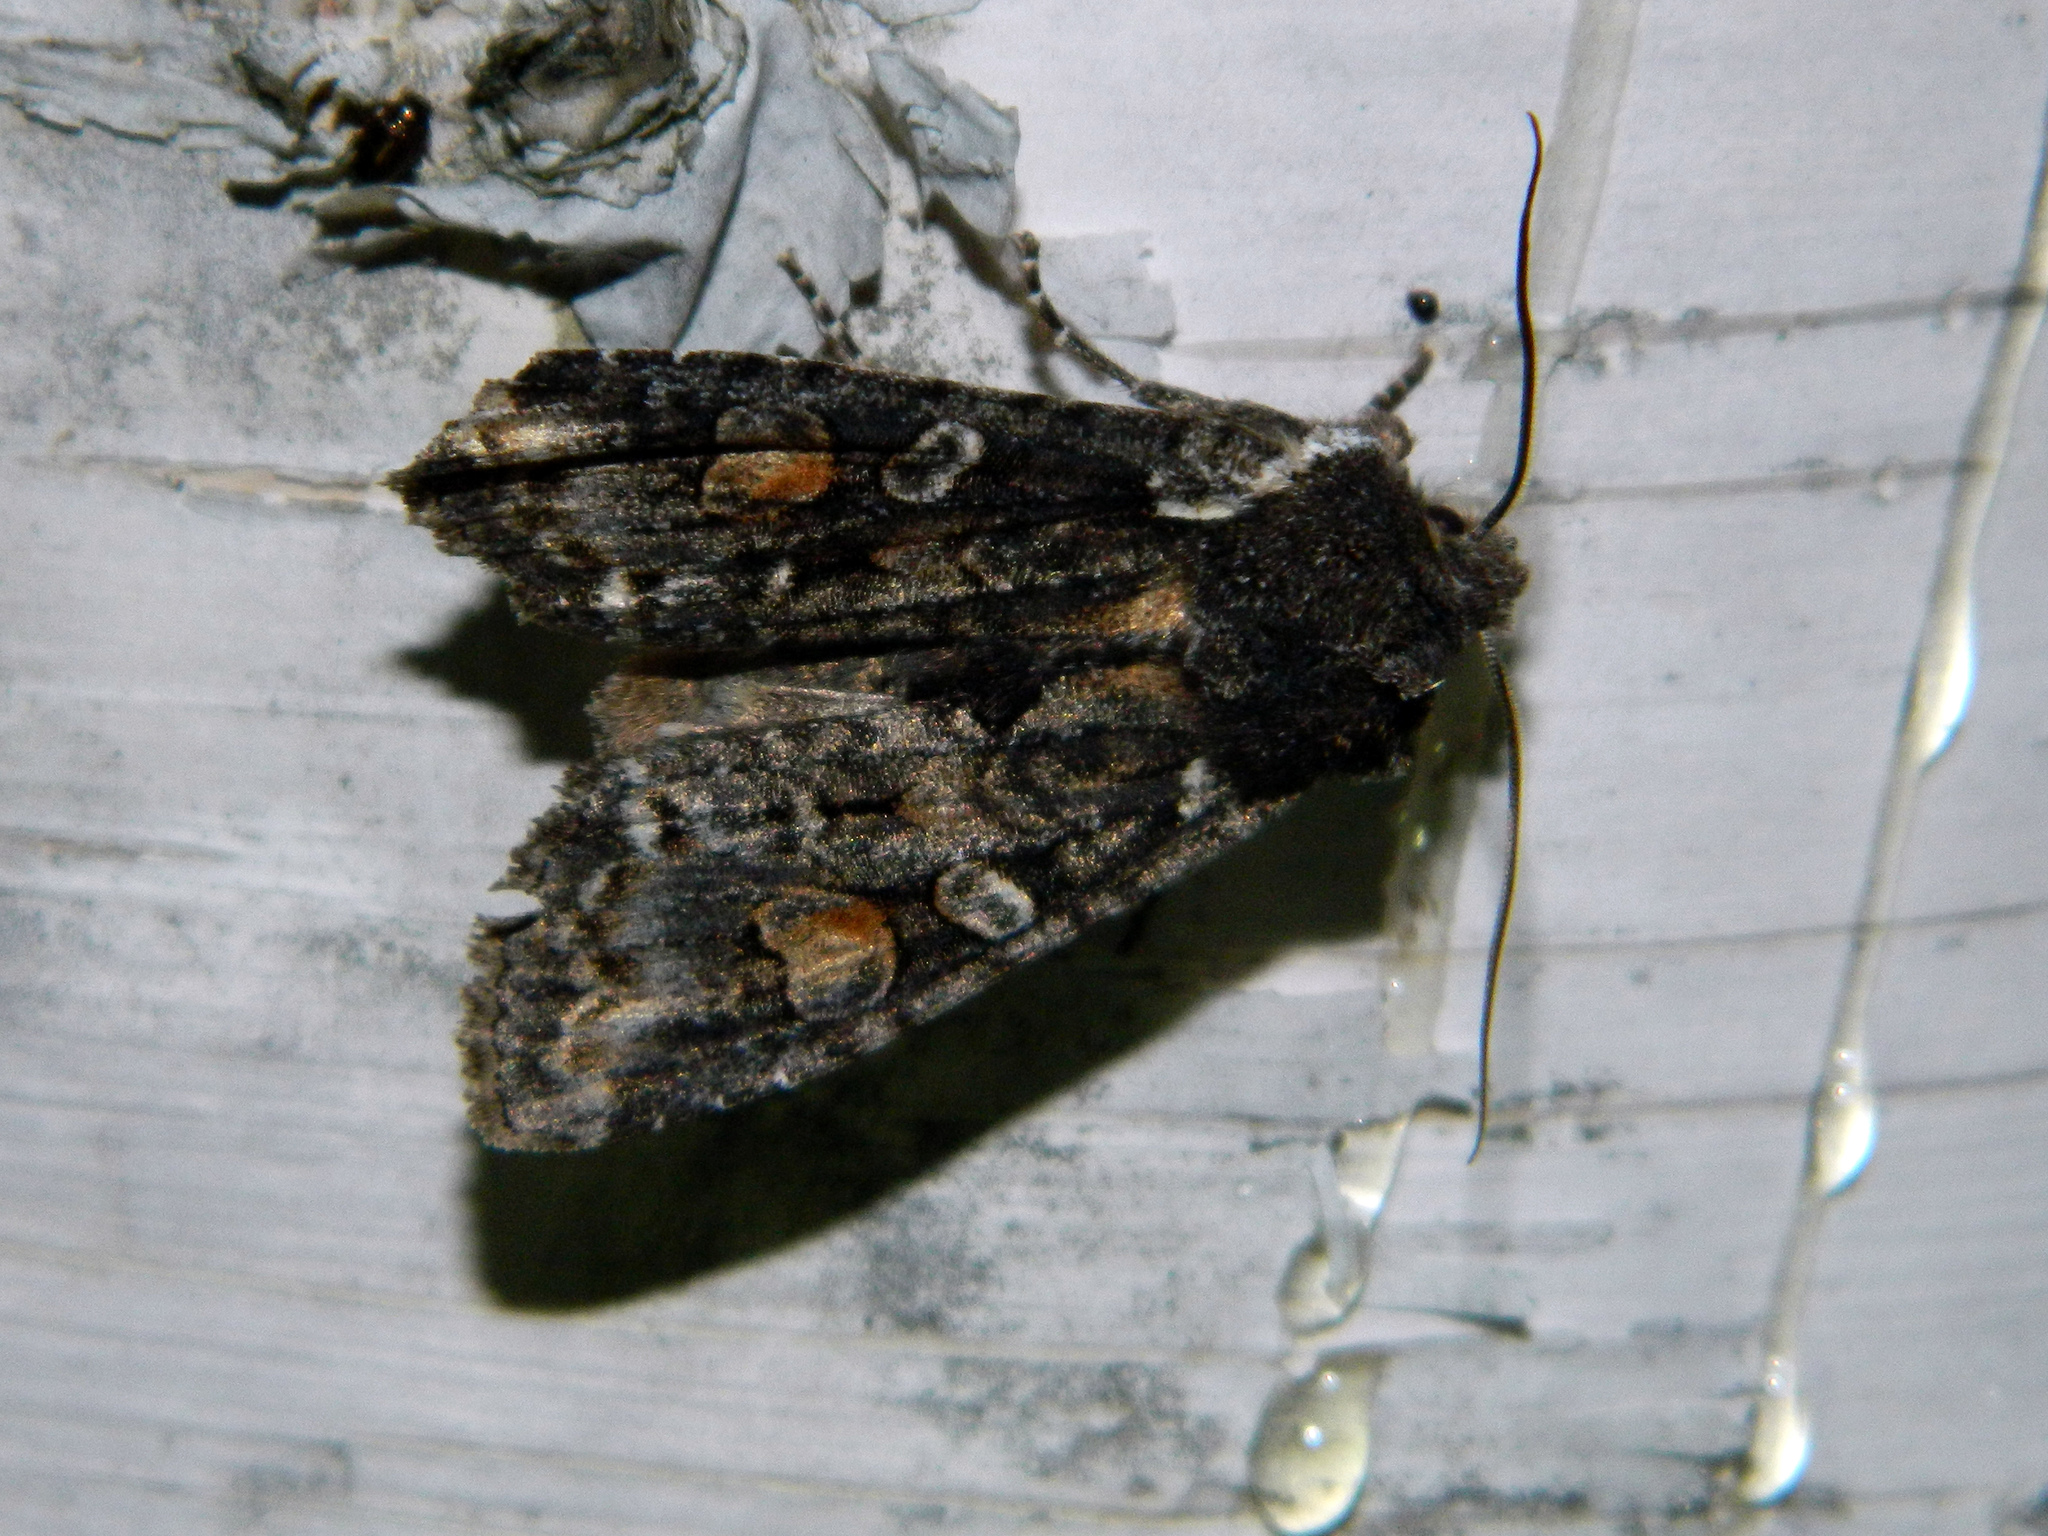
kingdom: Animalia
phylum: Arthropoda
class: Insecta
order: Lepidoptera
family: Noctuidae
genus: Lithophane
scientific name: Lithophane pexata
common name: Plush-naped pinion moth
